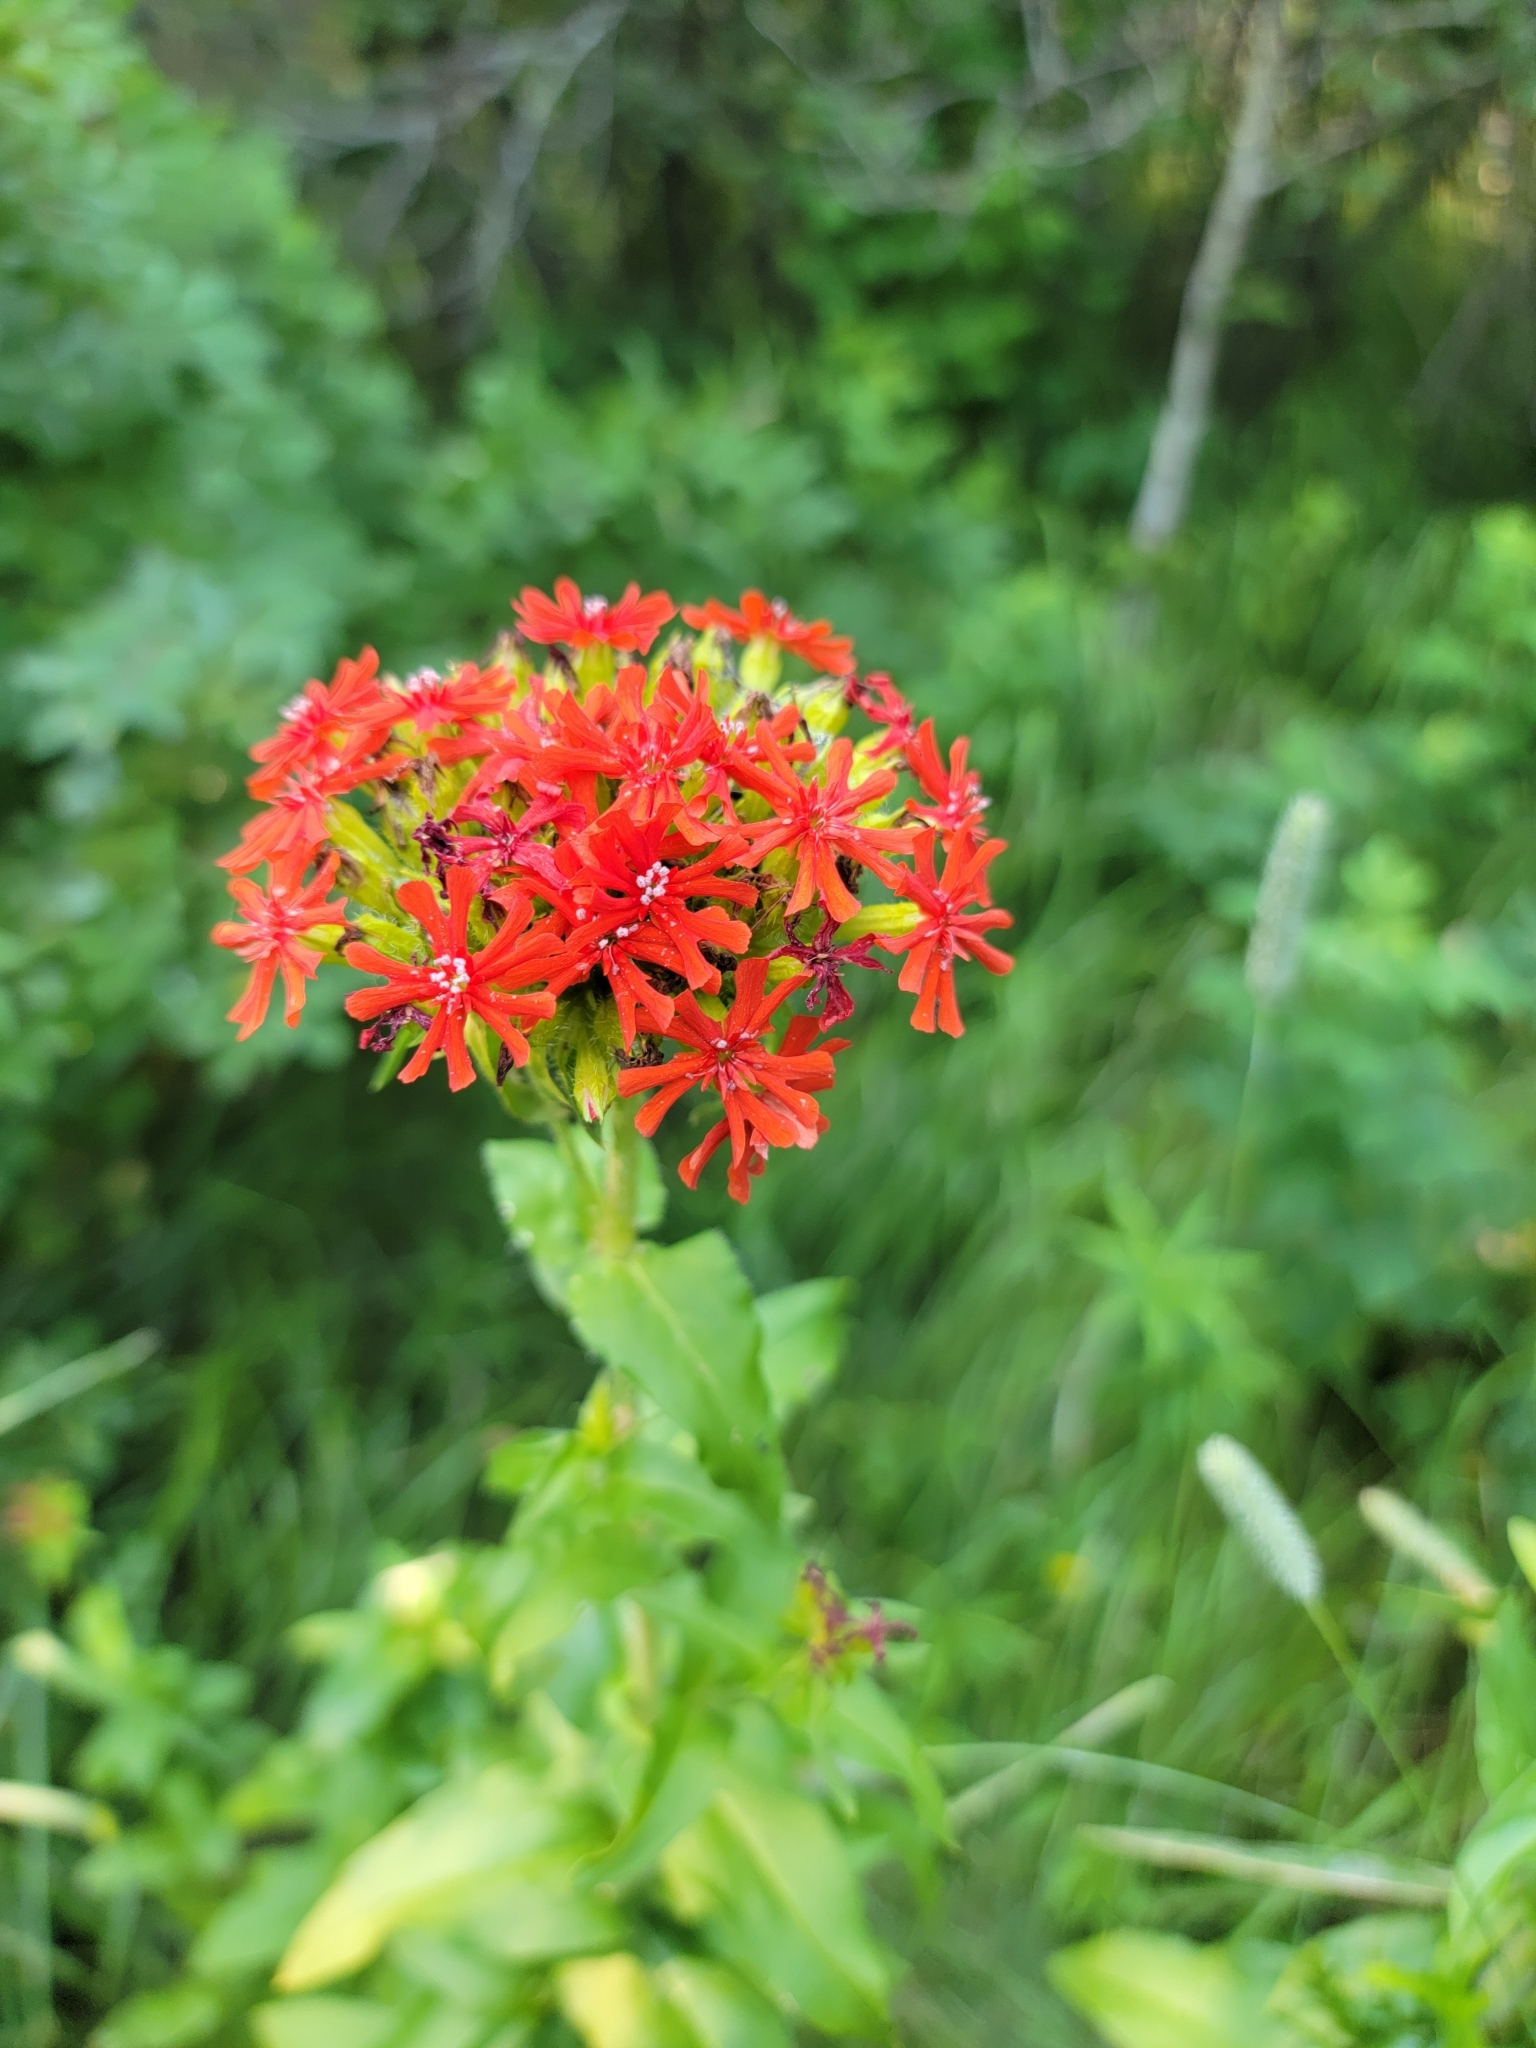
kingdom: Plantae
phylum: Tracheophyta
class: Magnoliopsida
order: Caryophyllales
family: Caryophyllaceae
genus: Silene
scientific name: Silene chalcedonica
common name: Maltese-cross
